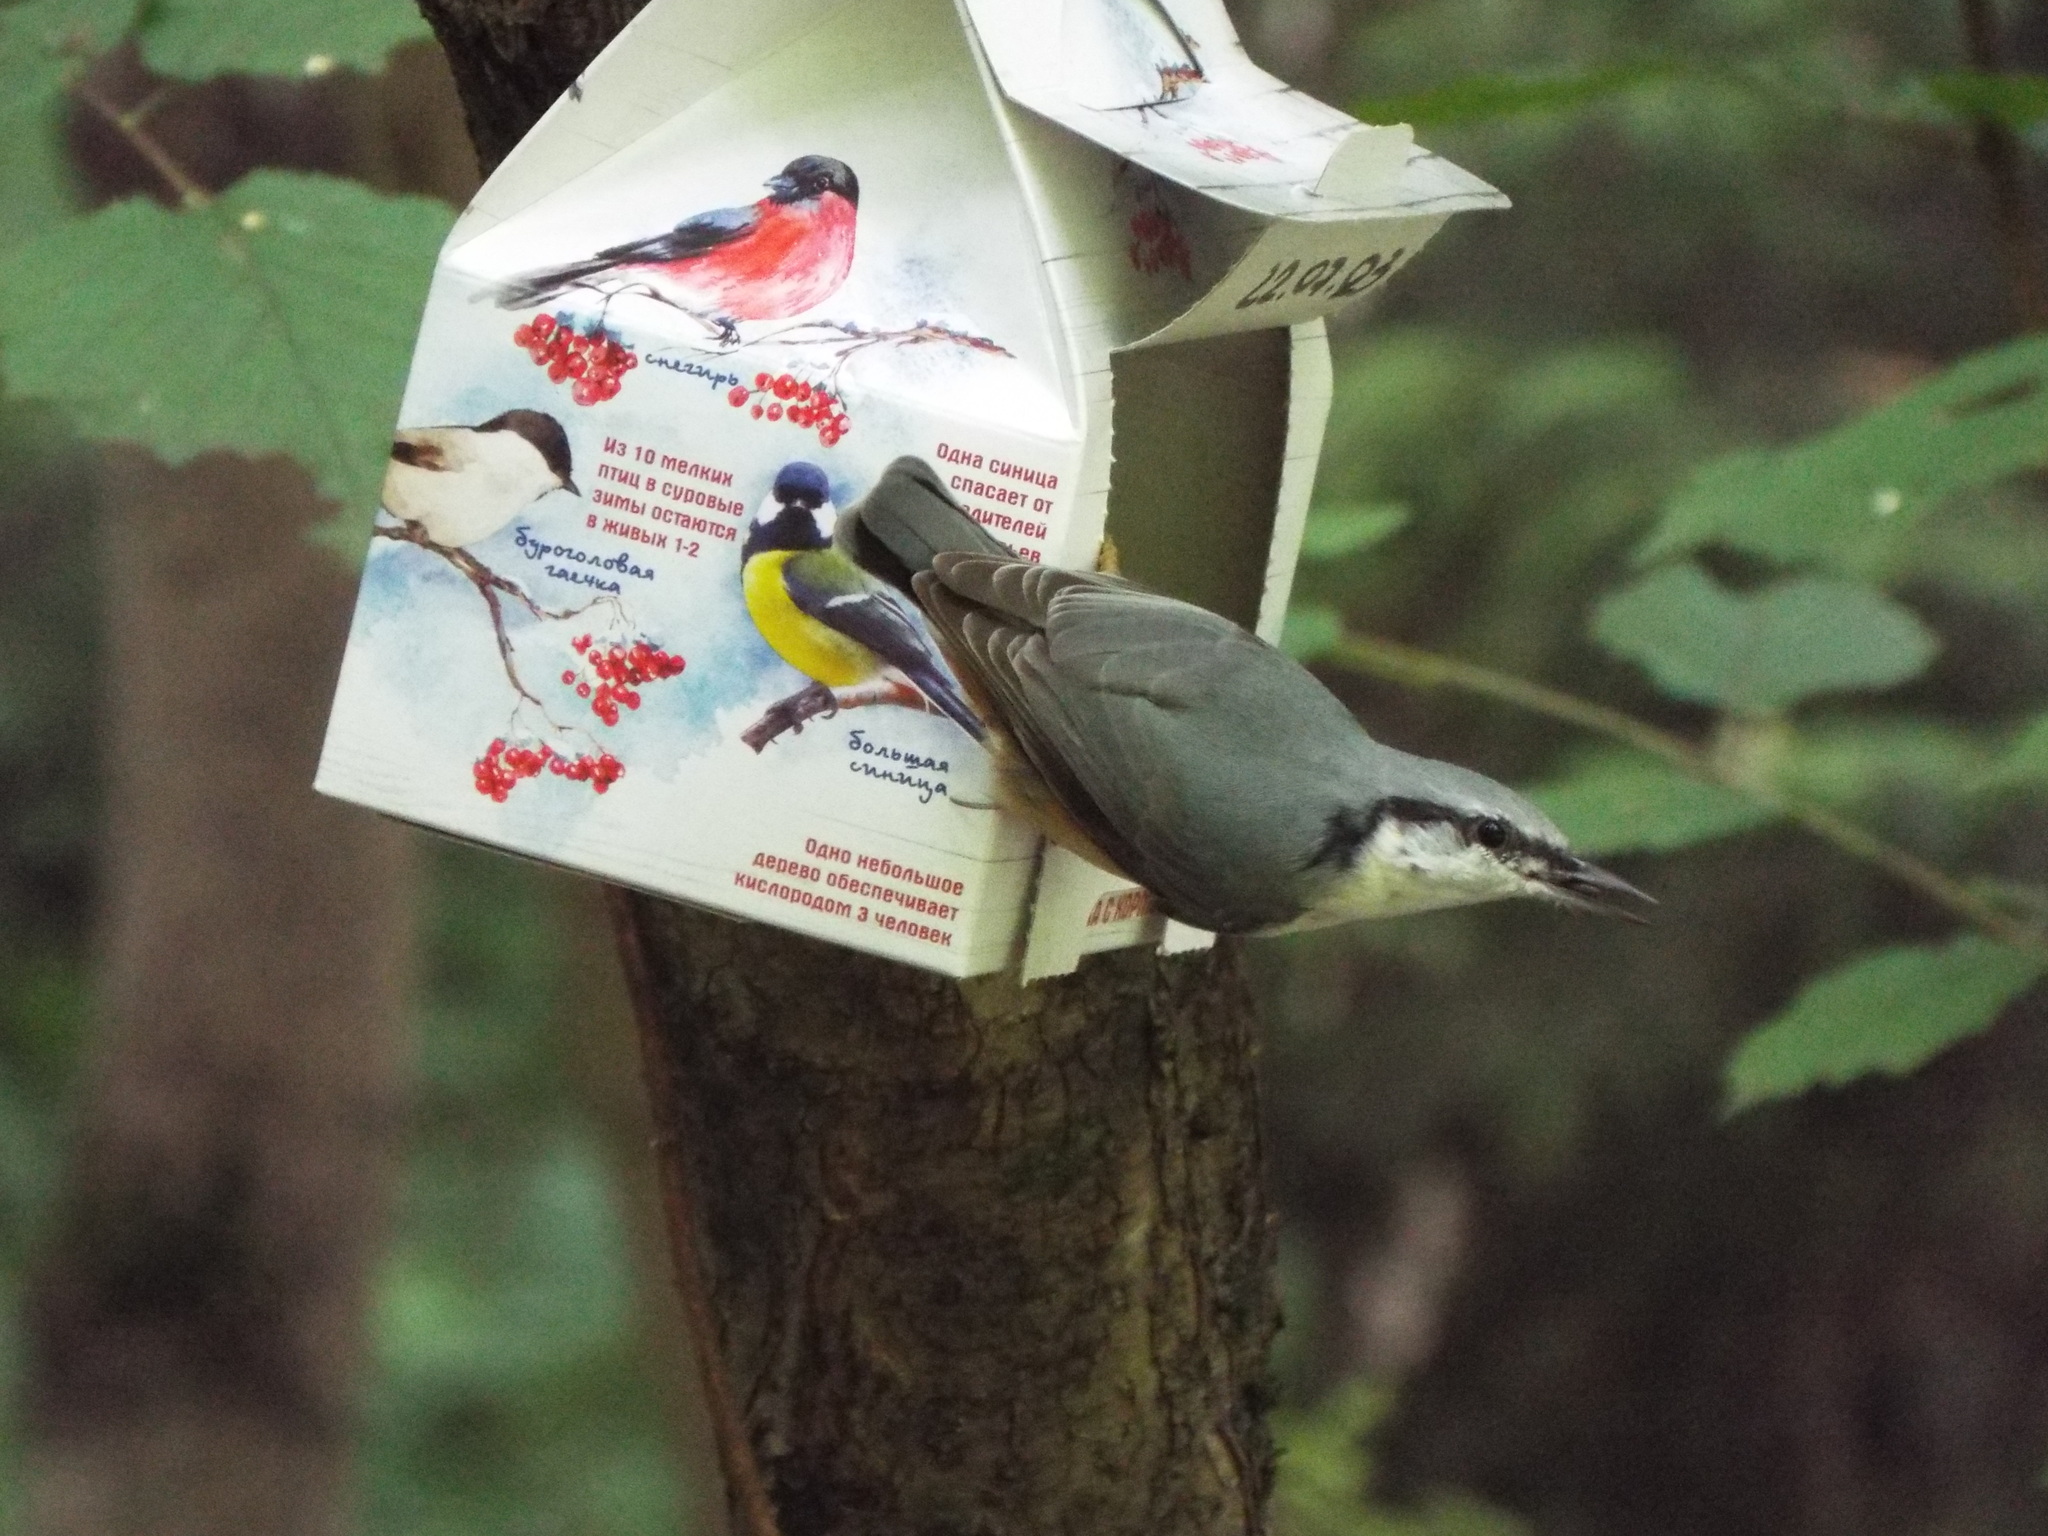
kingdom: Animalia
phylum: Chordata
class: Aves
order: Passeriformes
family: Sittidae
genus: Sitta
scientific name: Sitta europaea
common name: Eurasian nuthatch
